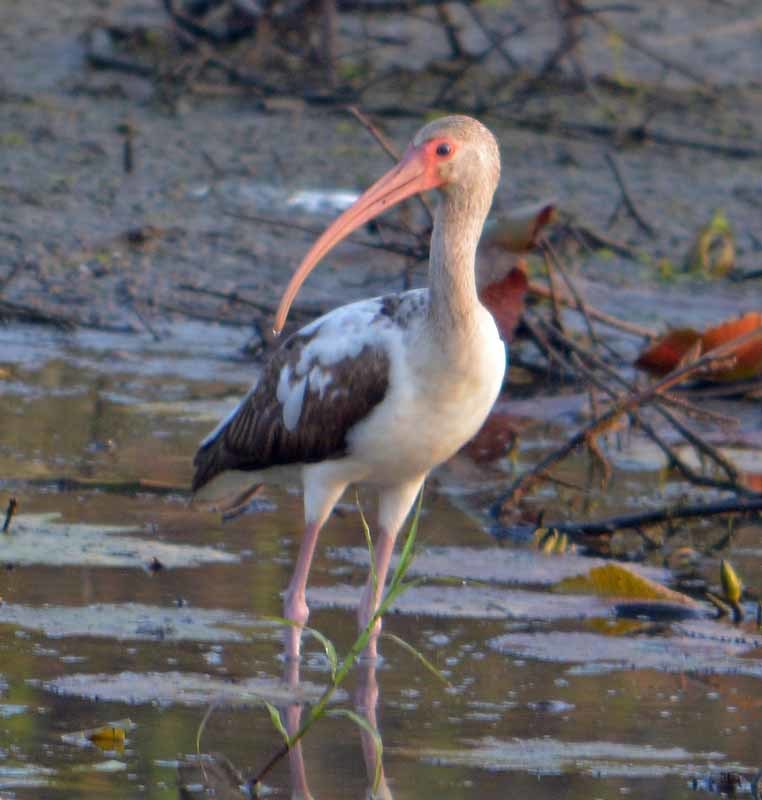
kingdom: Animalia
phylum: Chordata
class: Aves
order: Pelecaniformes
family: Threskiornithidae
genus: Eudocimus
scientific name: Eudocimus albus
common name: White ibis
